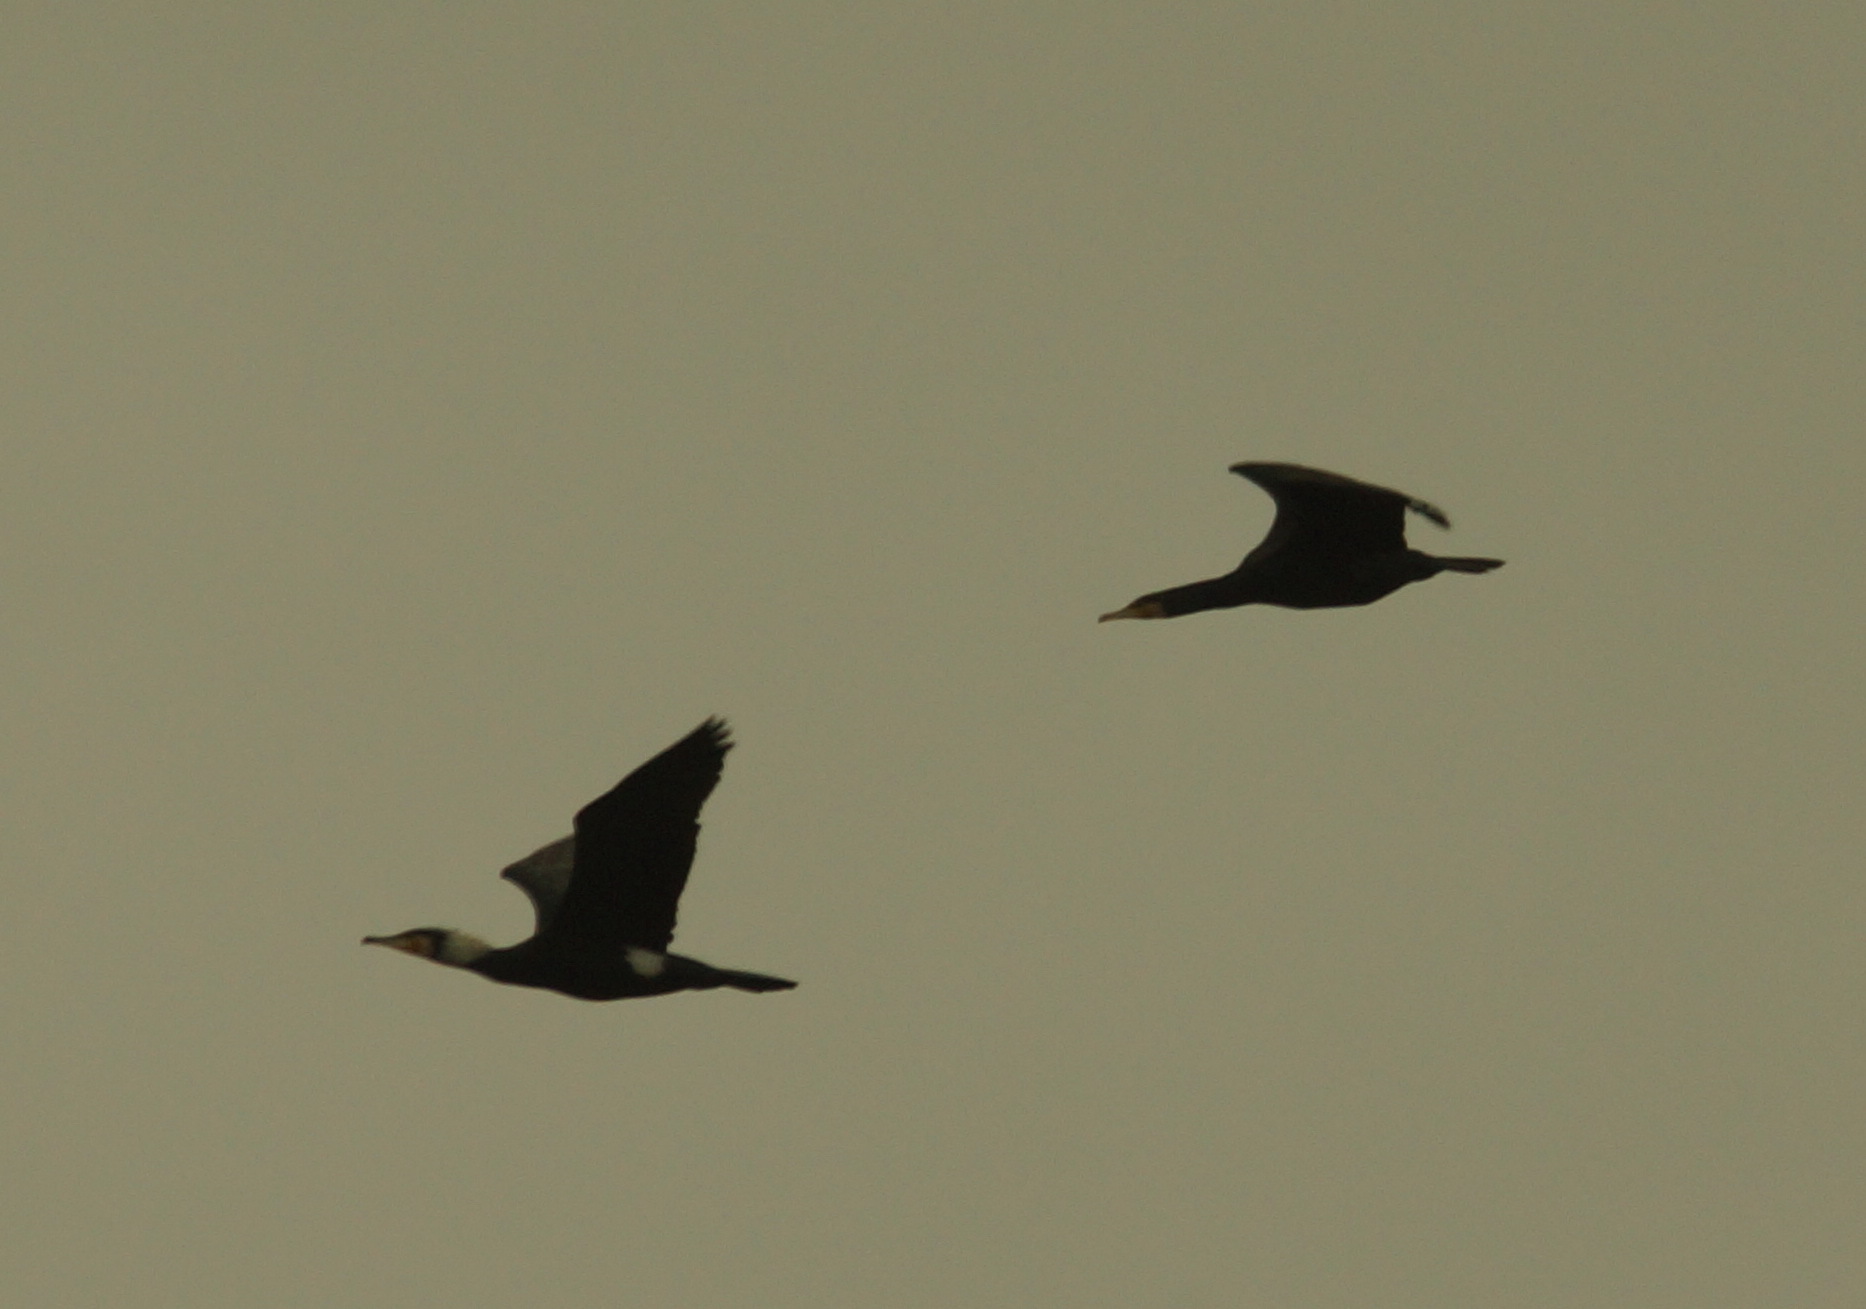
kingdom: Animalia
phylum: Chordata
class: Aves
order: Suliformes
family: Phalacrocoracidae
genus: Phalacrocorax
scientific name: Phalacrocorax carbo
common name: Great cormorant
